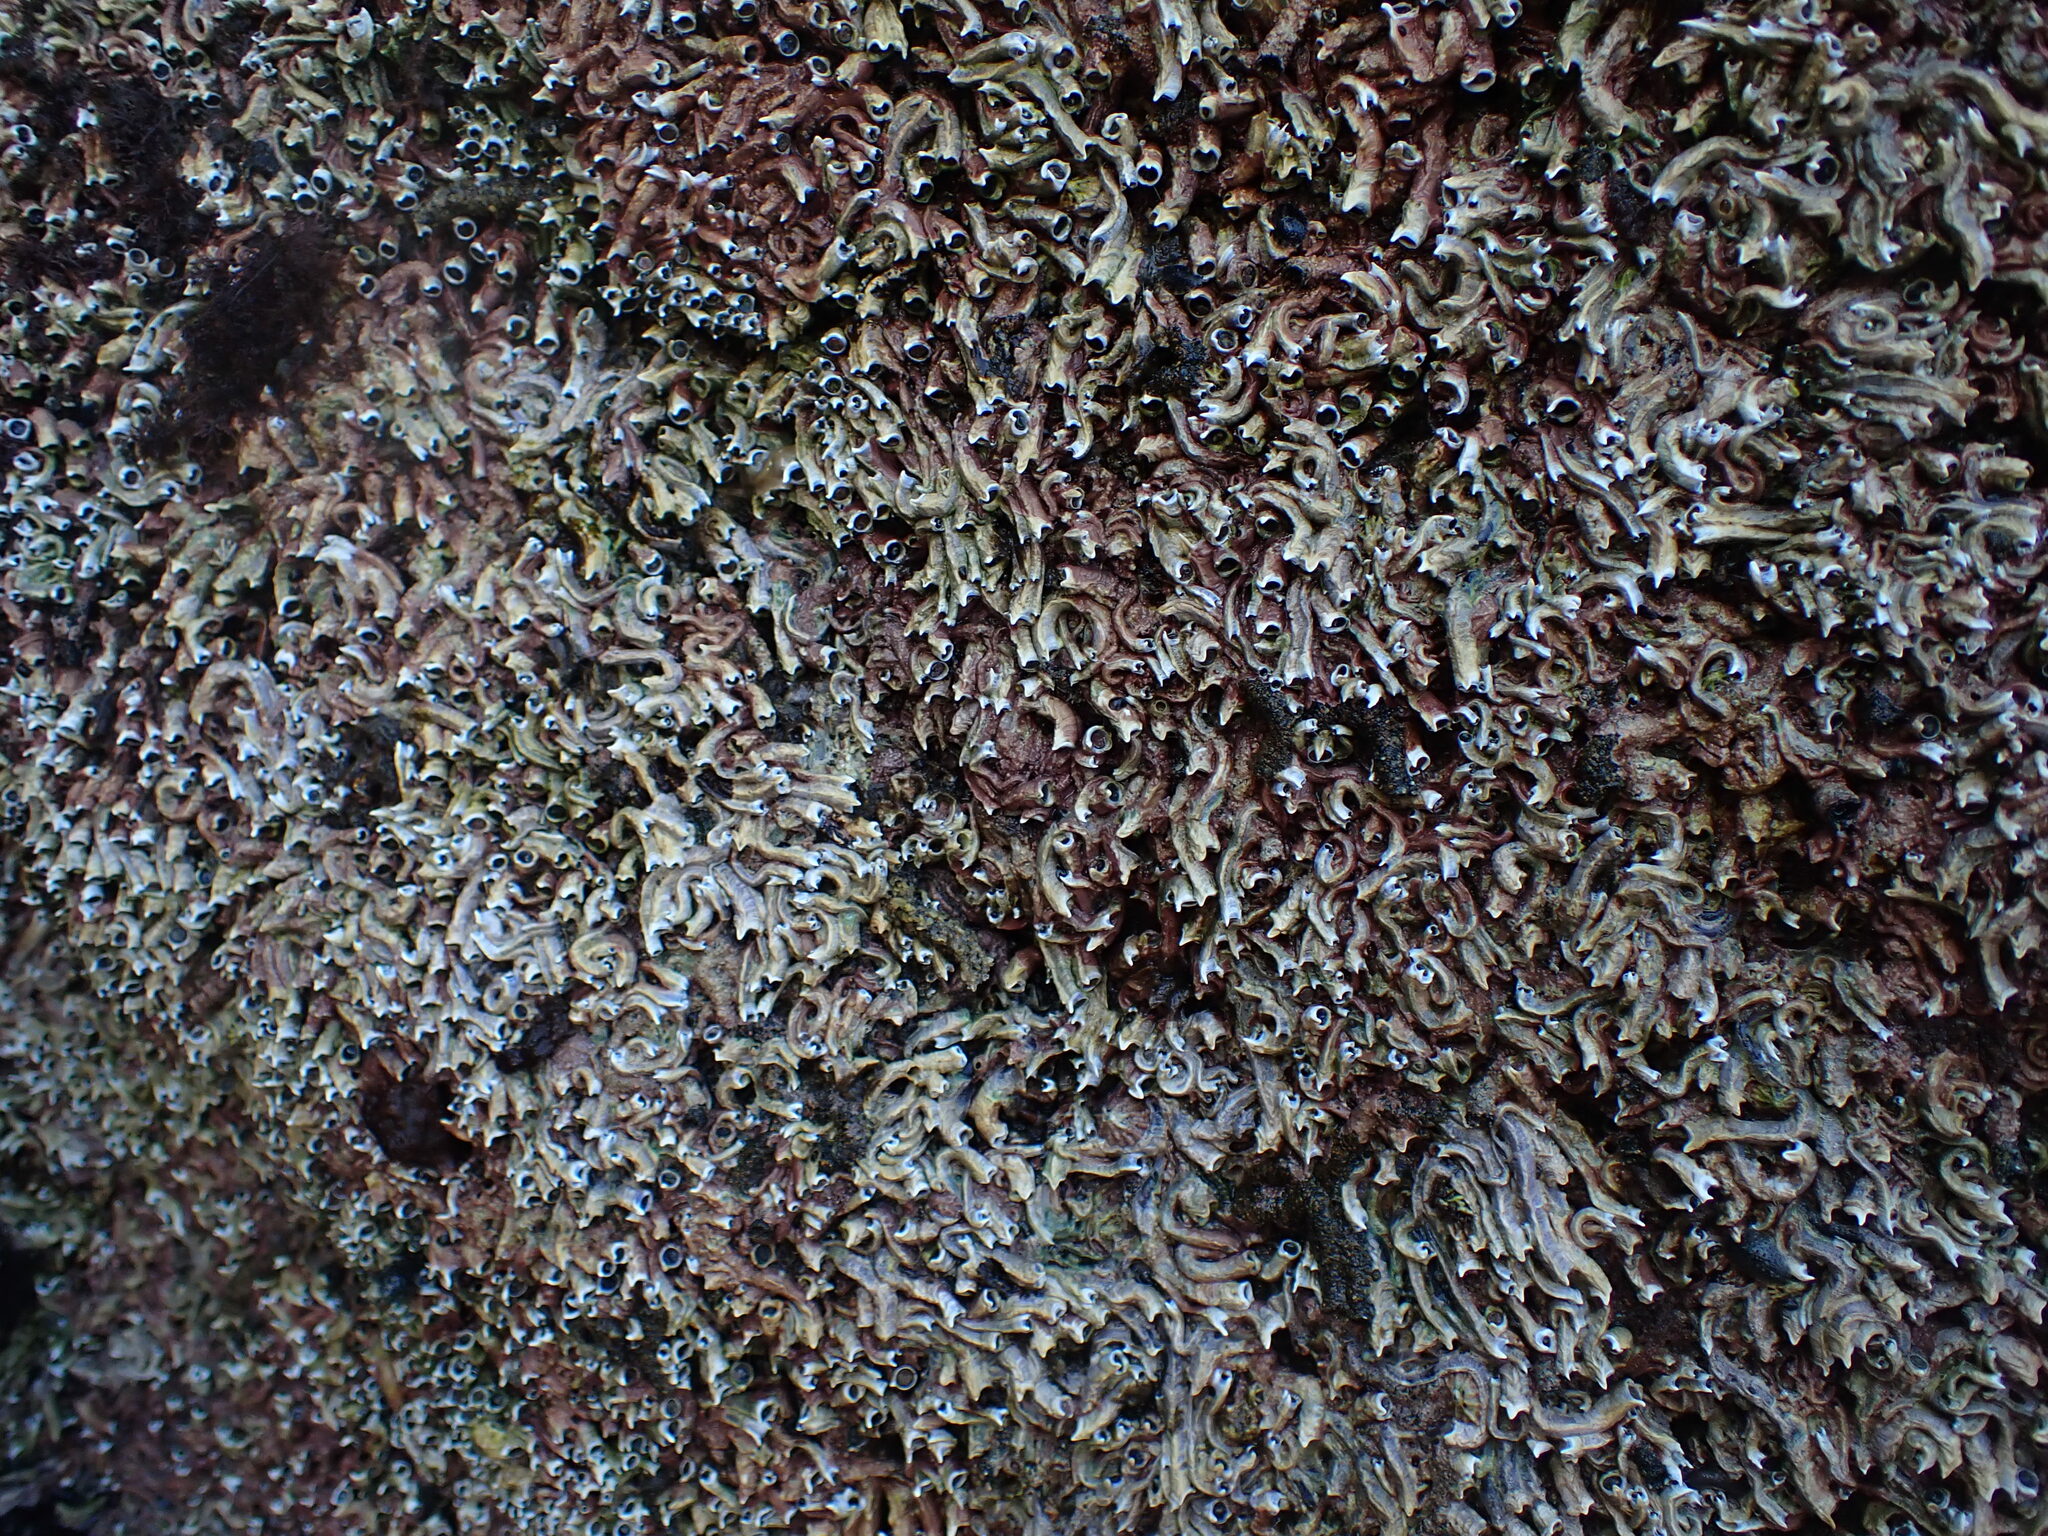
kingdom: Animalia
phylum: Annelida
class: Polychaeta
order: Sabellida
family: Serpulidae
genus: Spirobranchus
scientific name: Spirobranchus cariniferus
